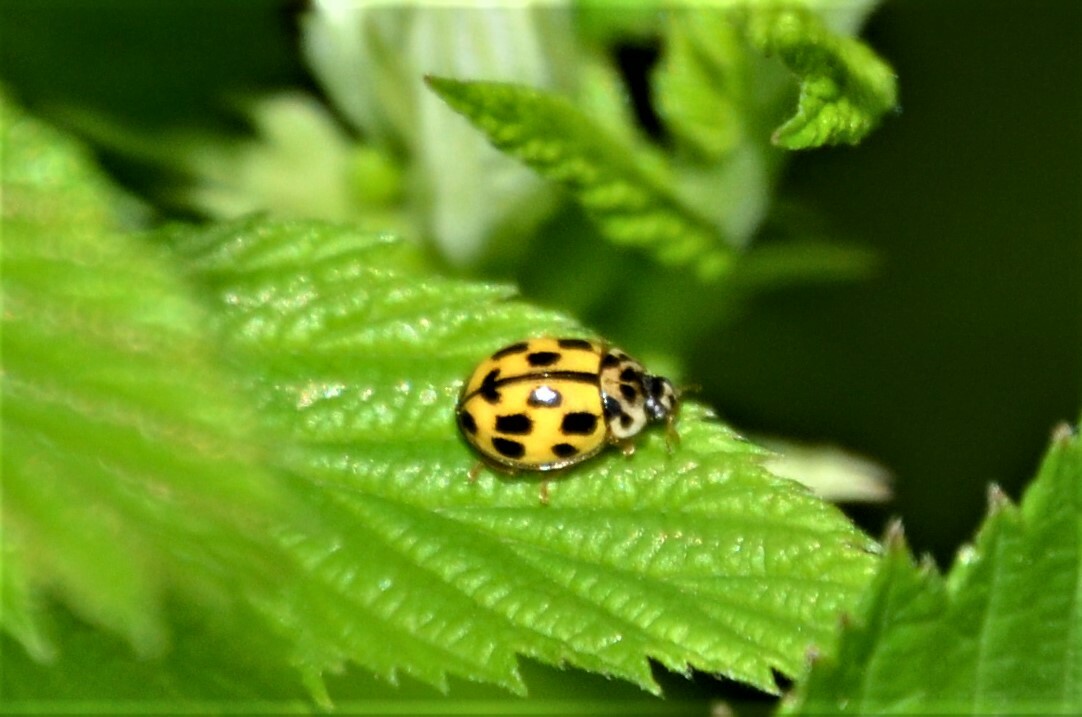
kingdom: Animalia
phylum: Arthropoda
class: Insecta
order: Coleoptera
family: Coccinellidae
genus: Propylaea
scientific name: Propylaea quatuordecimpunctata
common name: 14-spotted ladybird beetle
